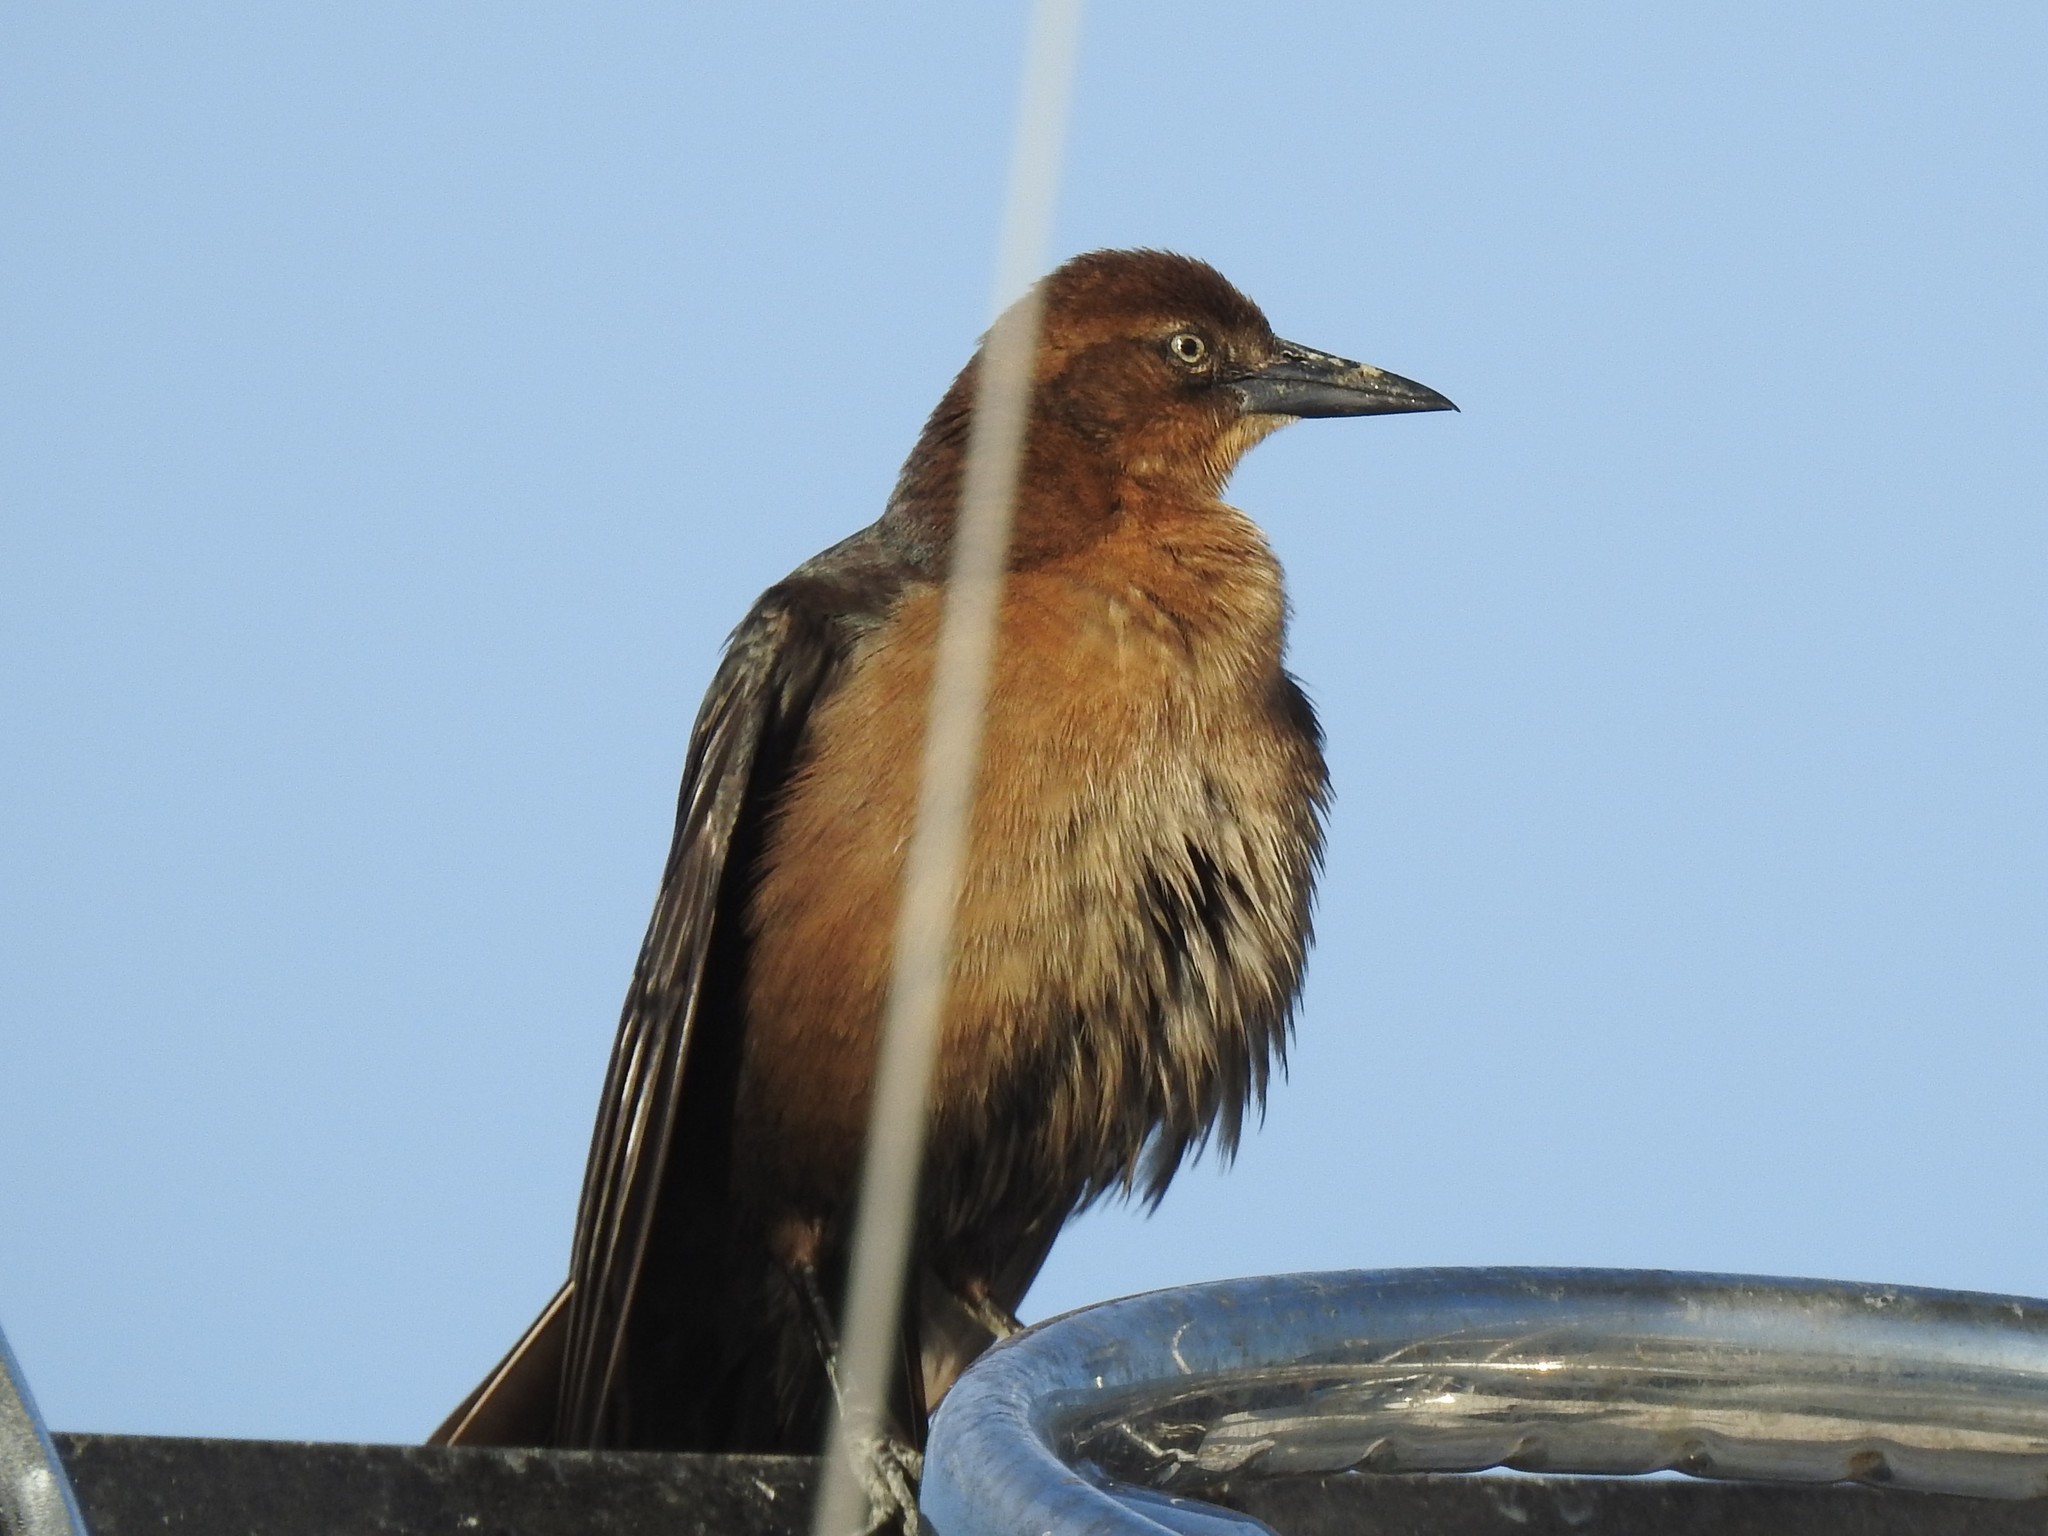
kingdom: Animalia
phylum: Chordata
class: Aves
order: Passeriformes
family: Icteridae
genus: Quiscalus
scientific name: Quiscalus major
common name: Boat-tailed grackle
